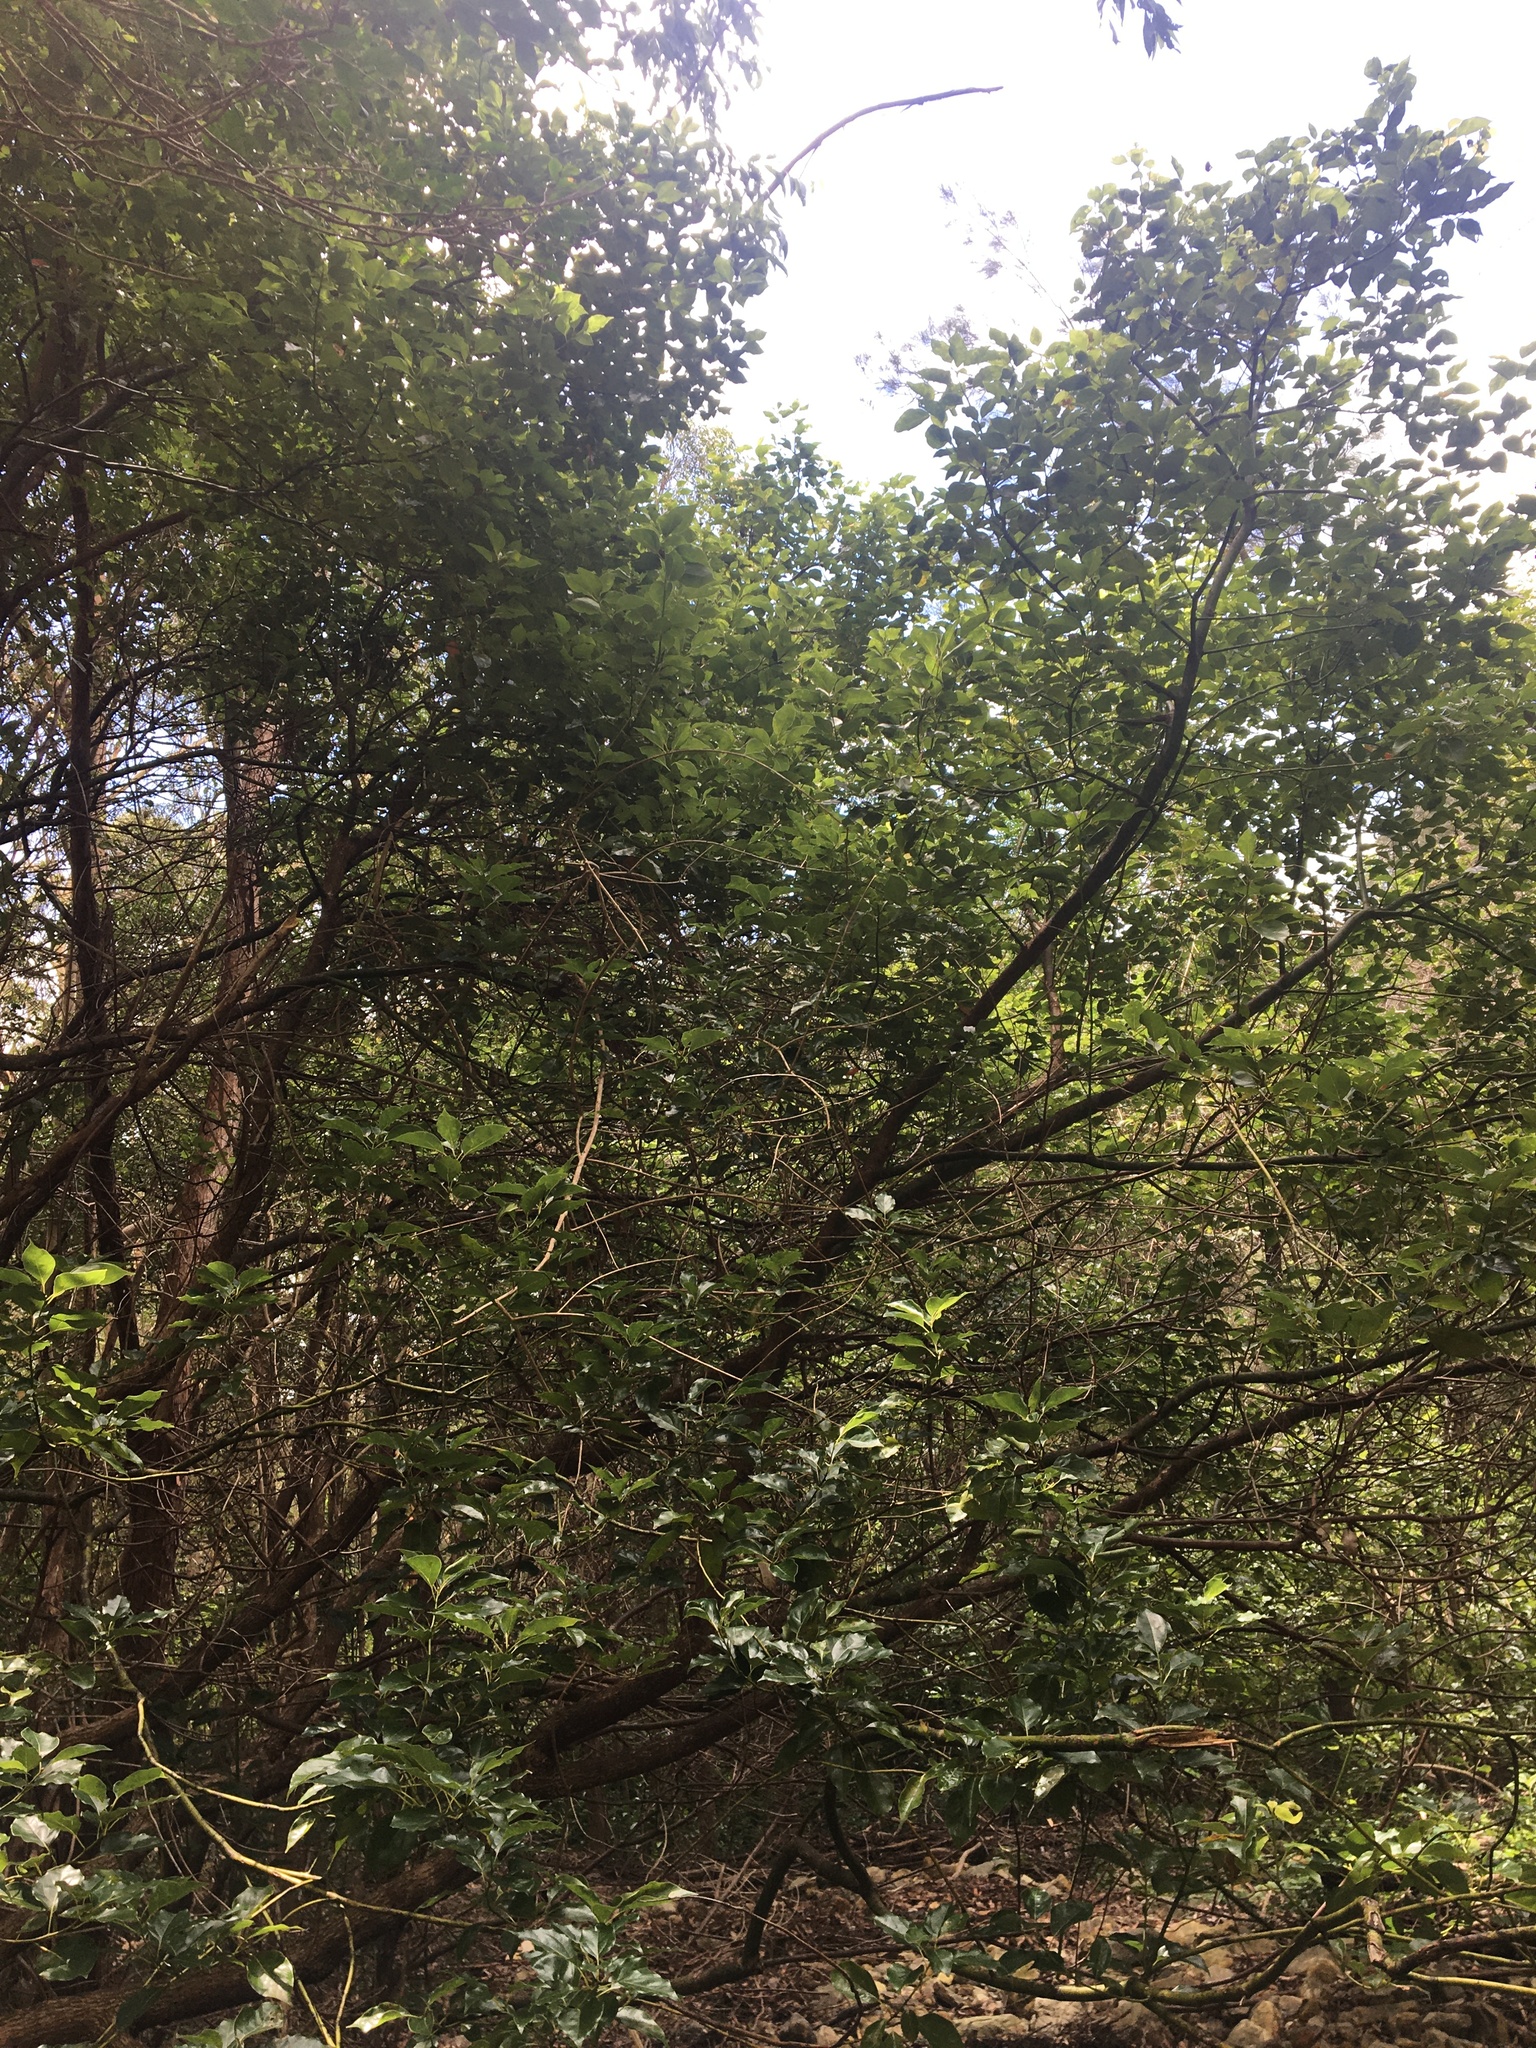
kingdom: Plantae
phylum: Tracheophyta
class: Magnoliopsida
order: Laurales
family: Lauraceae
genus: Cinnamomum
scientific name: Cinnamomum camphora
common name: Camphortree
